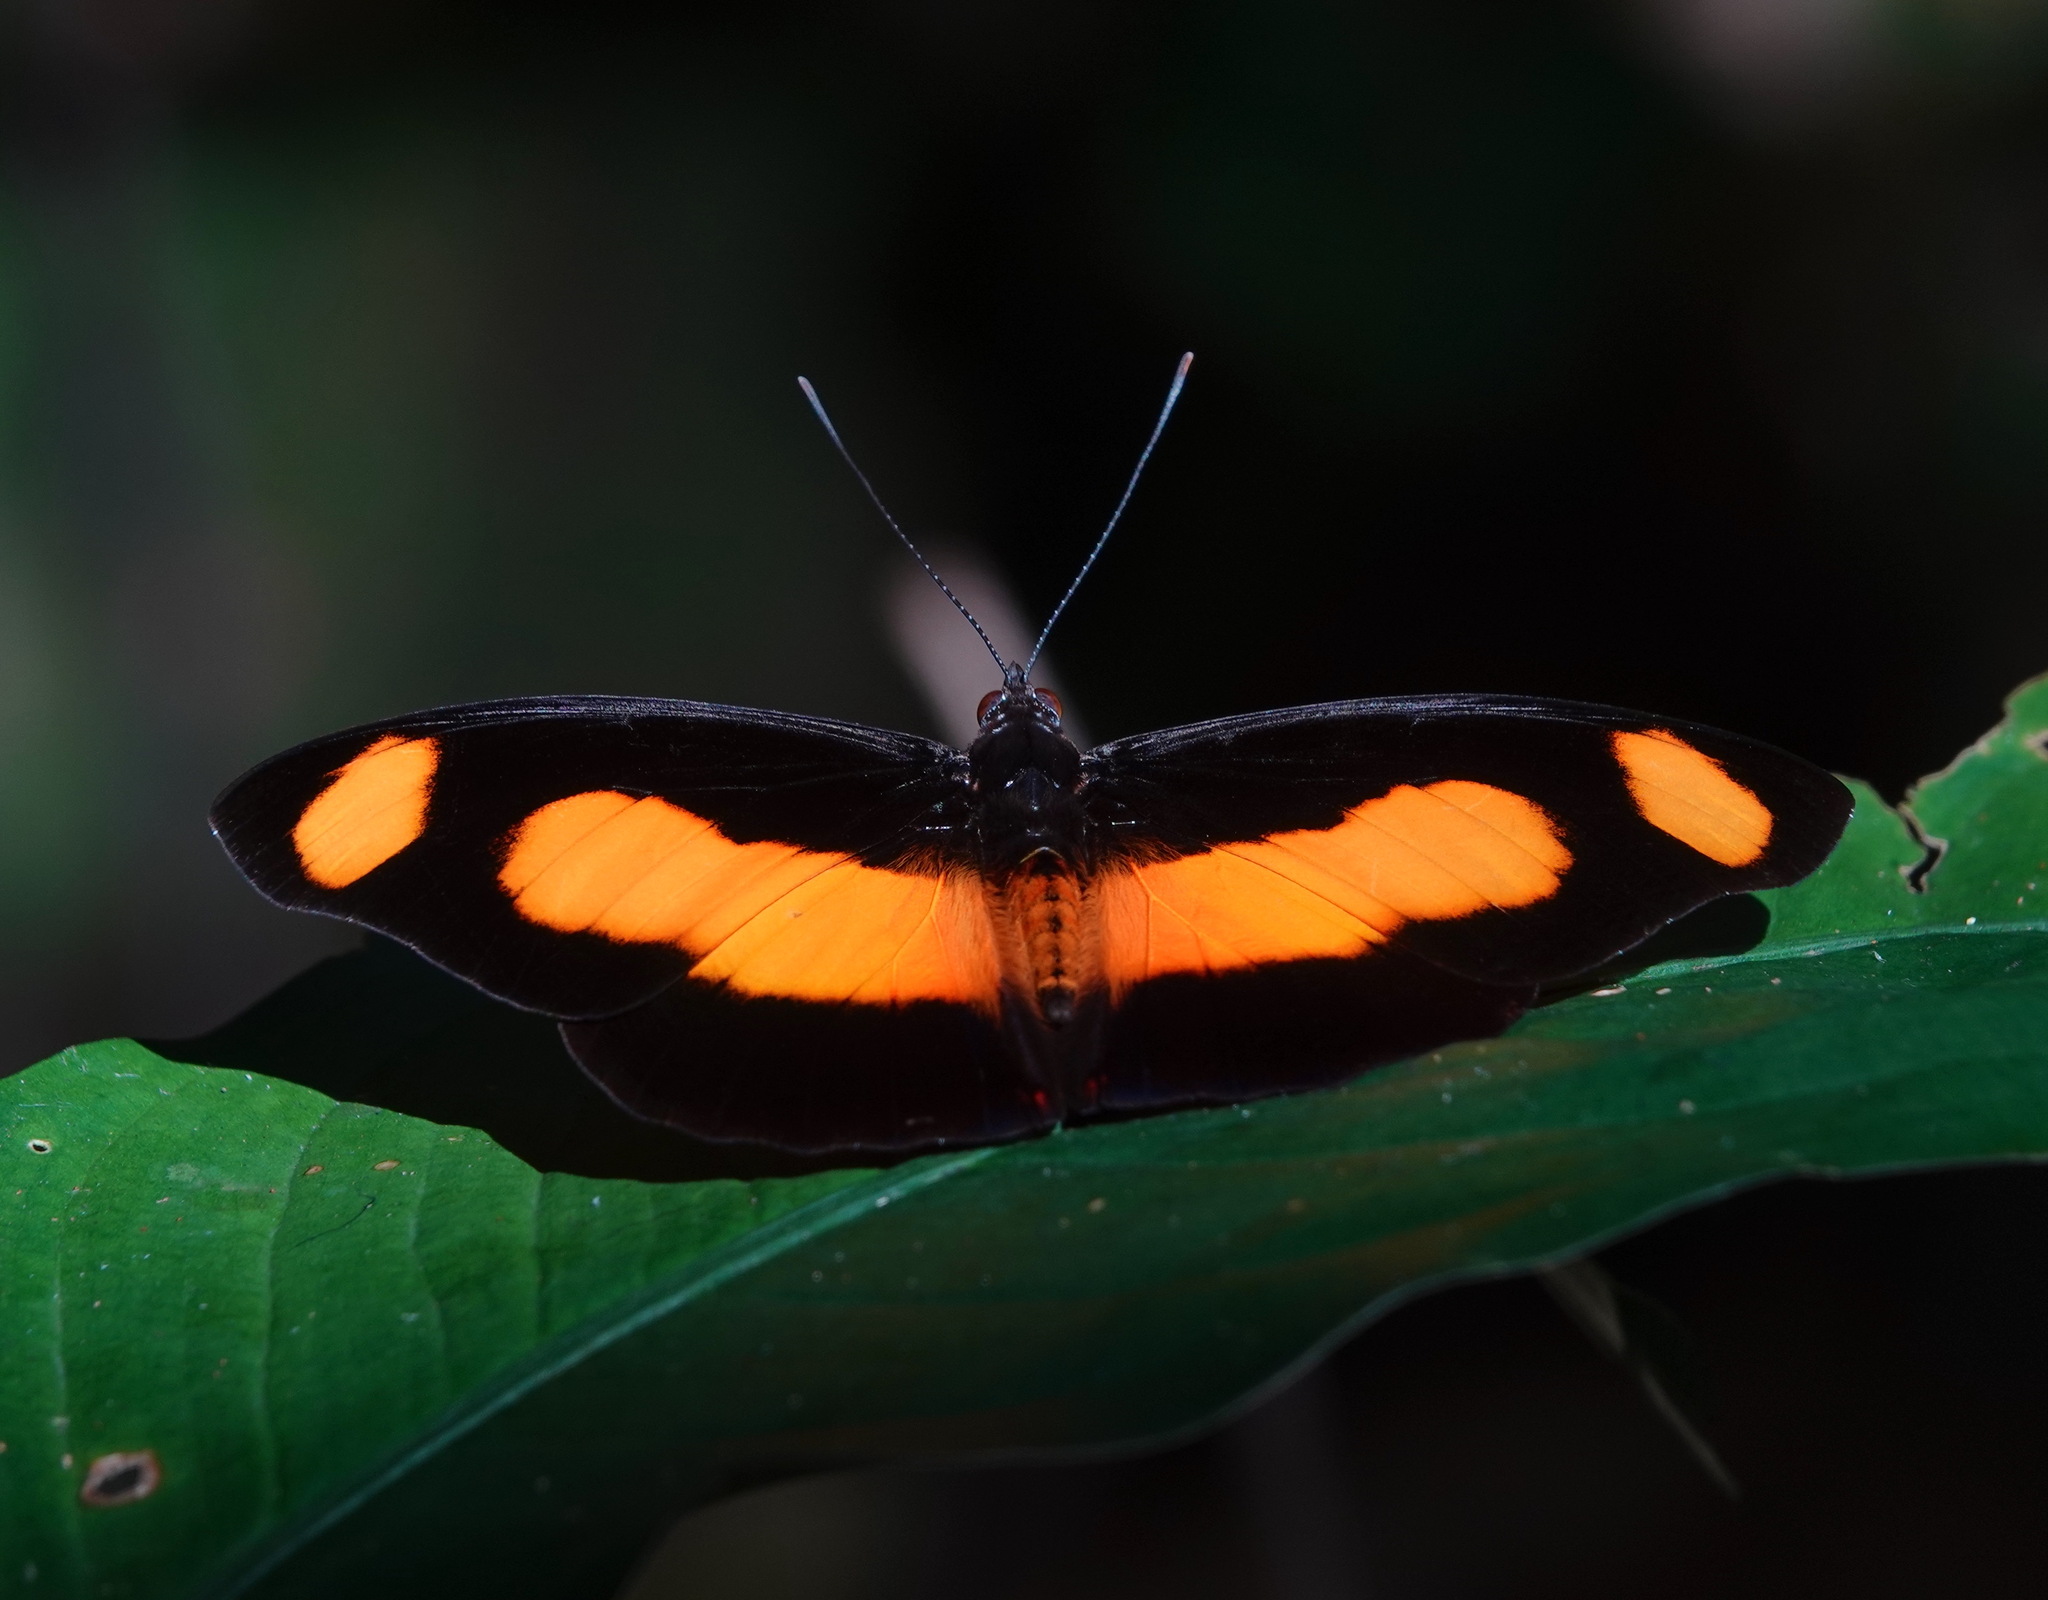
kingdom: Animalia
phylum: Arthropoda
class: Insecta
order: Lepidoptera
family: Nymphalidae
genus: Catonephele
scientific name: Catonephele salambria
